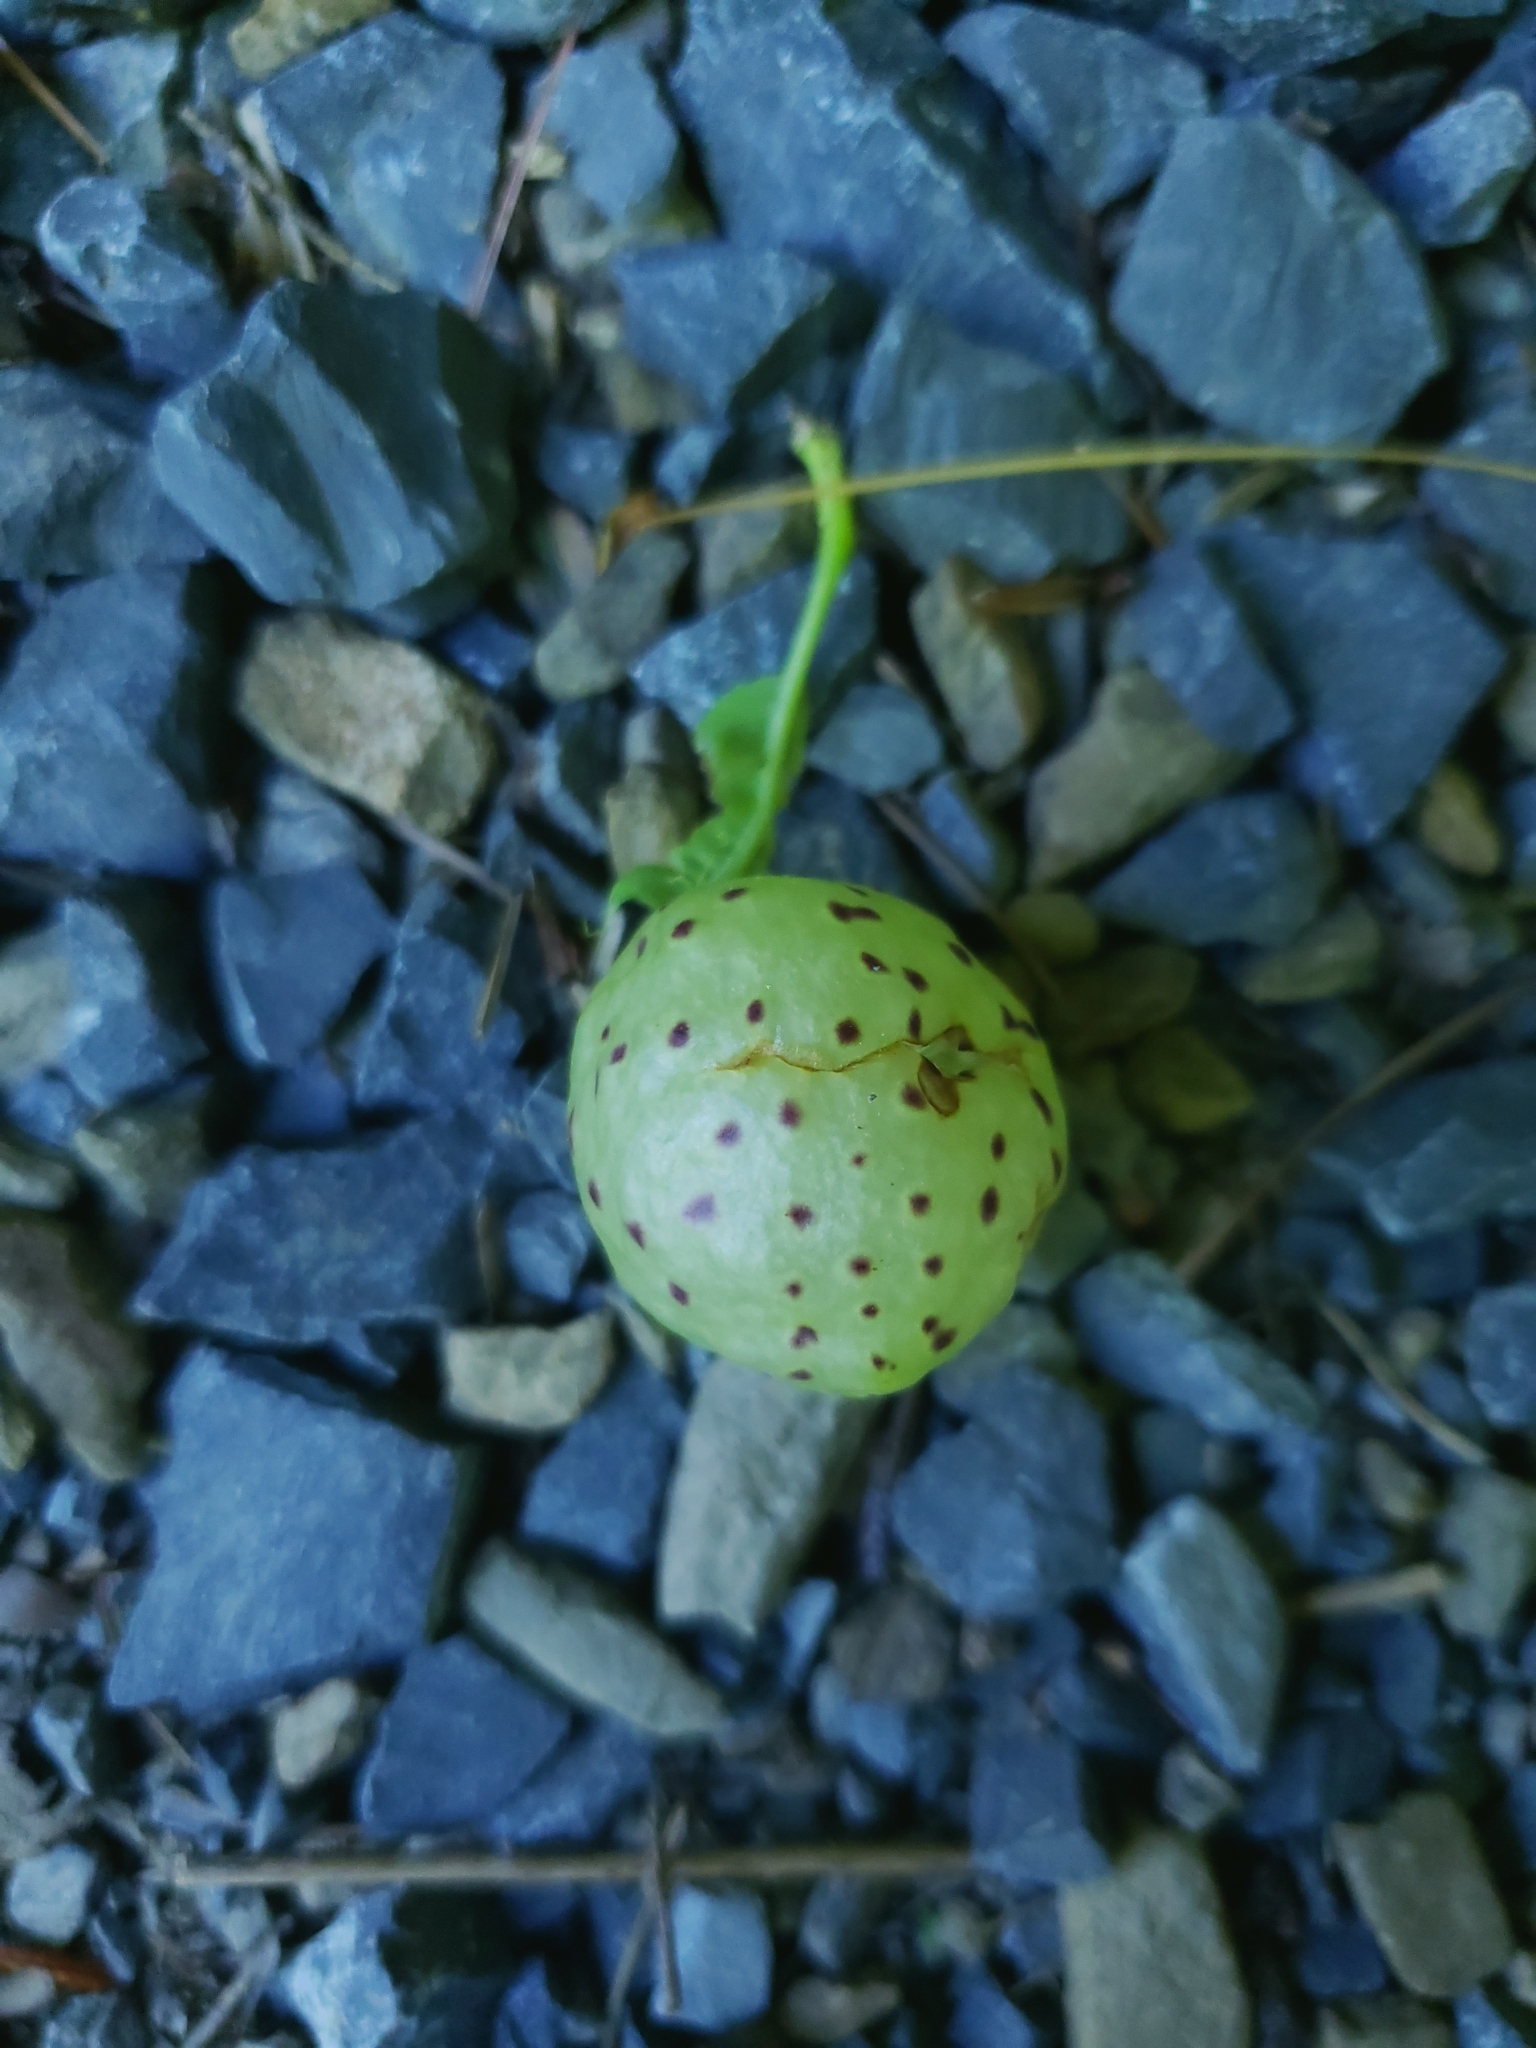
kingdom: Animalia
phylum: Arthropoda
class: Insecta
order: Hymenoptera
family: Cynipidae
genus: Amphibolips
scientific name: Amphibolips
